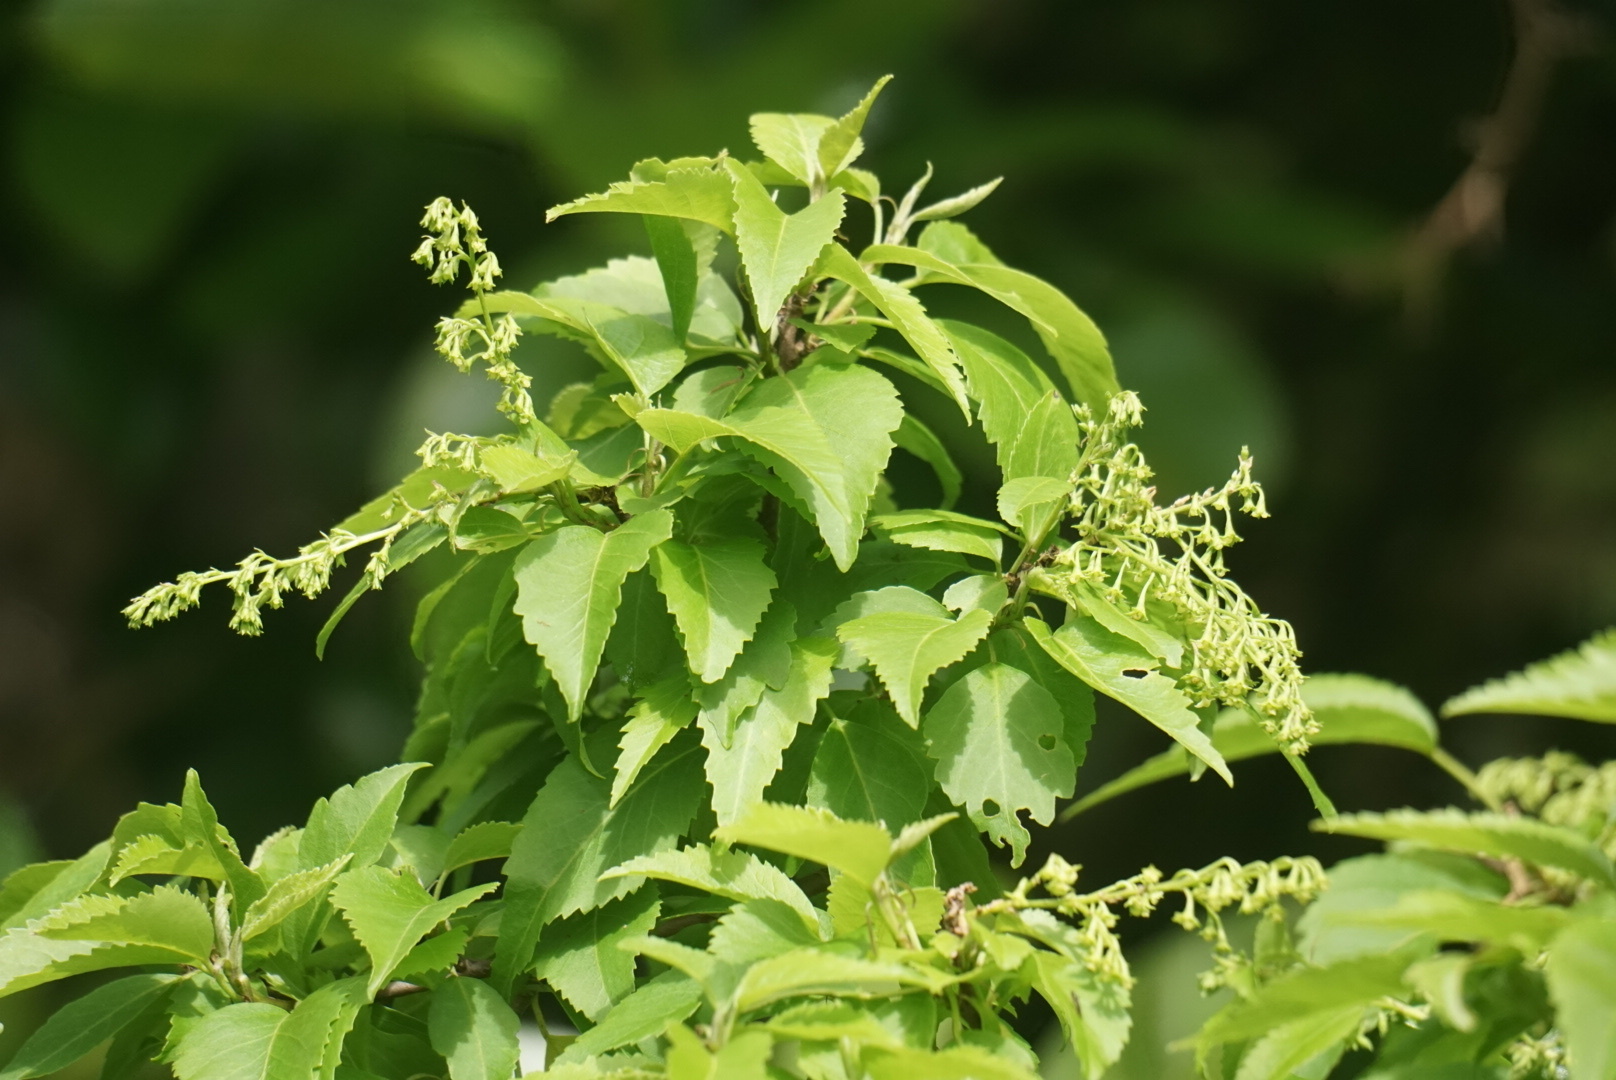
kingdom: Plantae
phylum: Tracheophyta
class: Magnoliopsida
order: Malvales
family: Malvaceae
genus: Plagianthus
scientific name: Plagianthus regius
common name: Manatu
